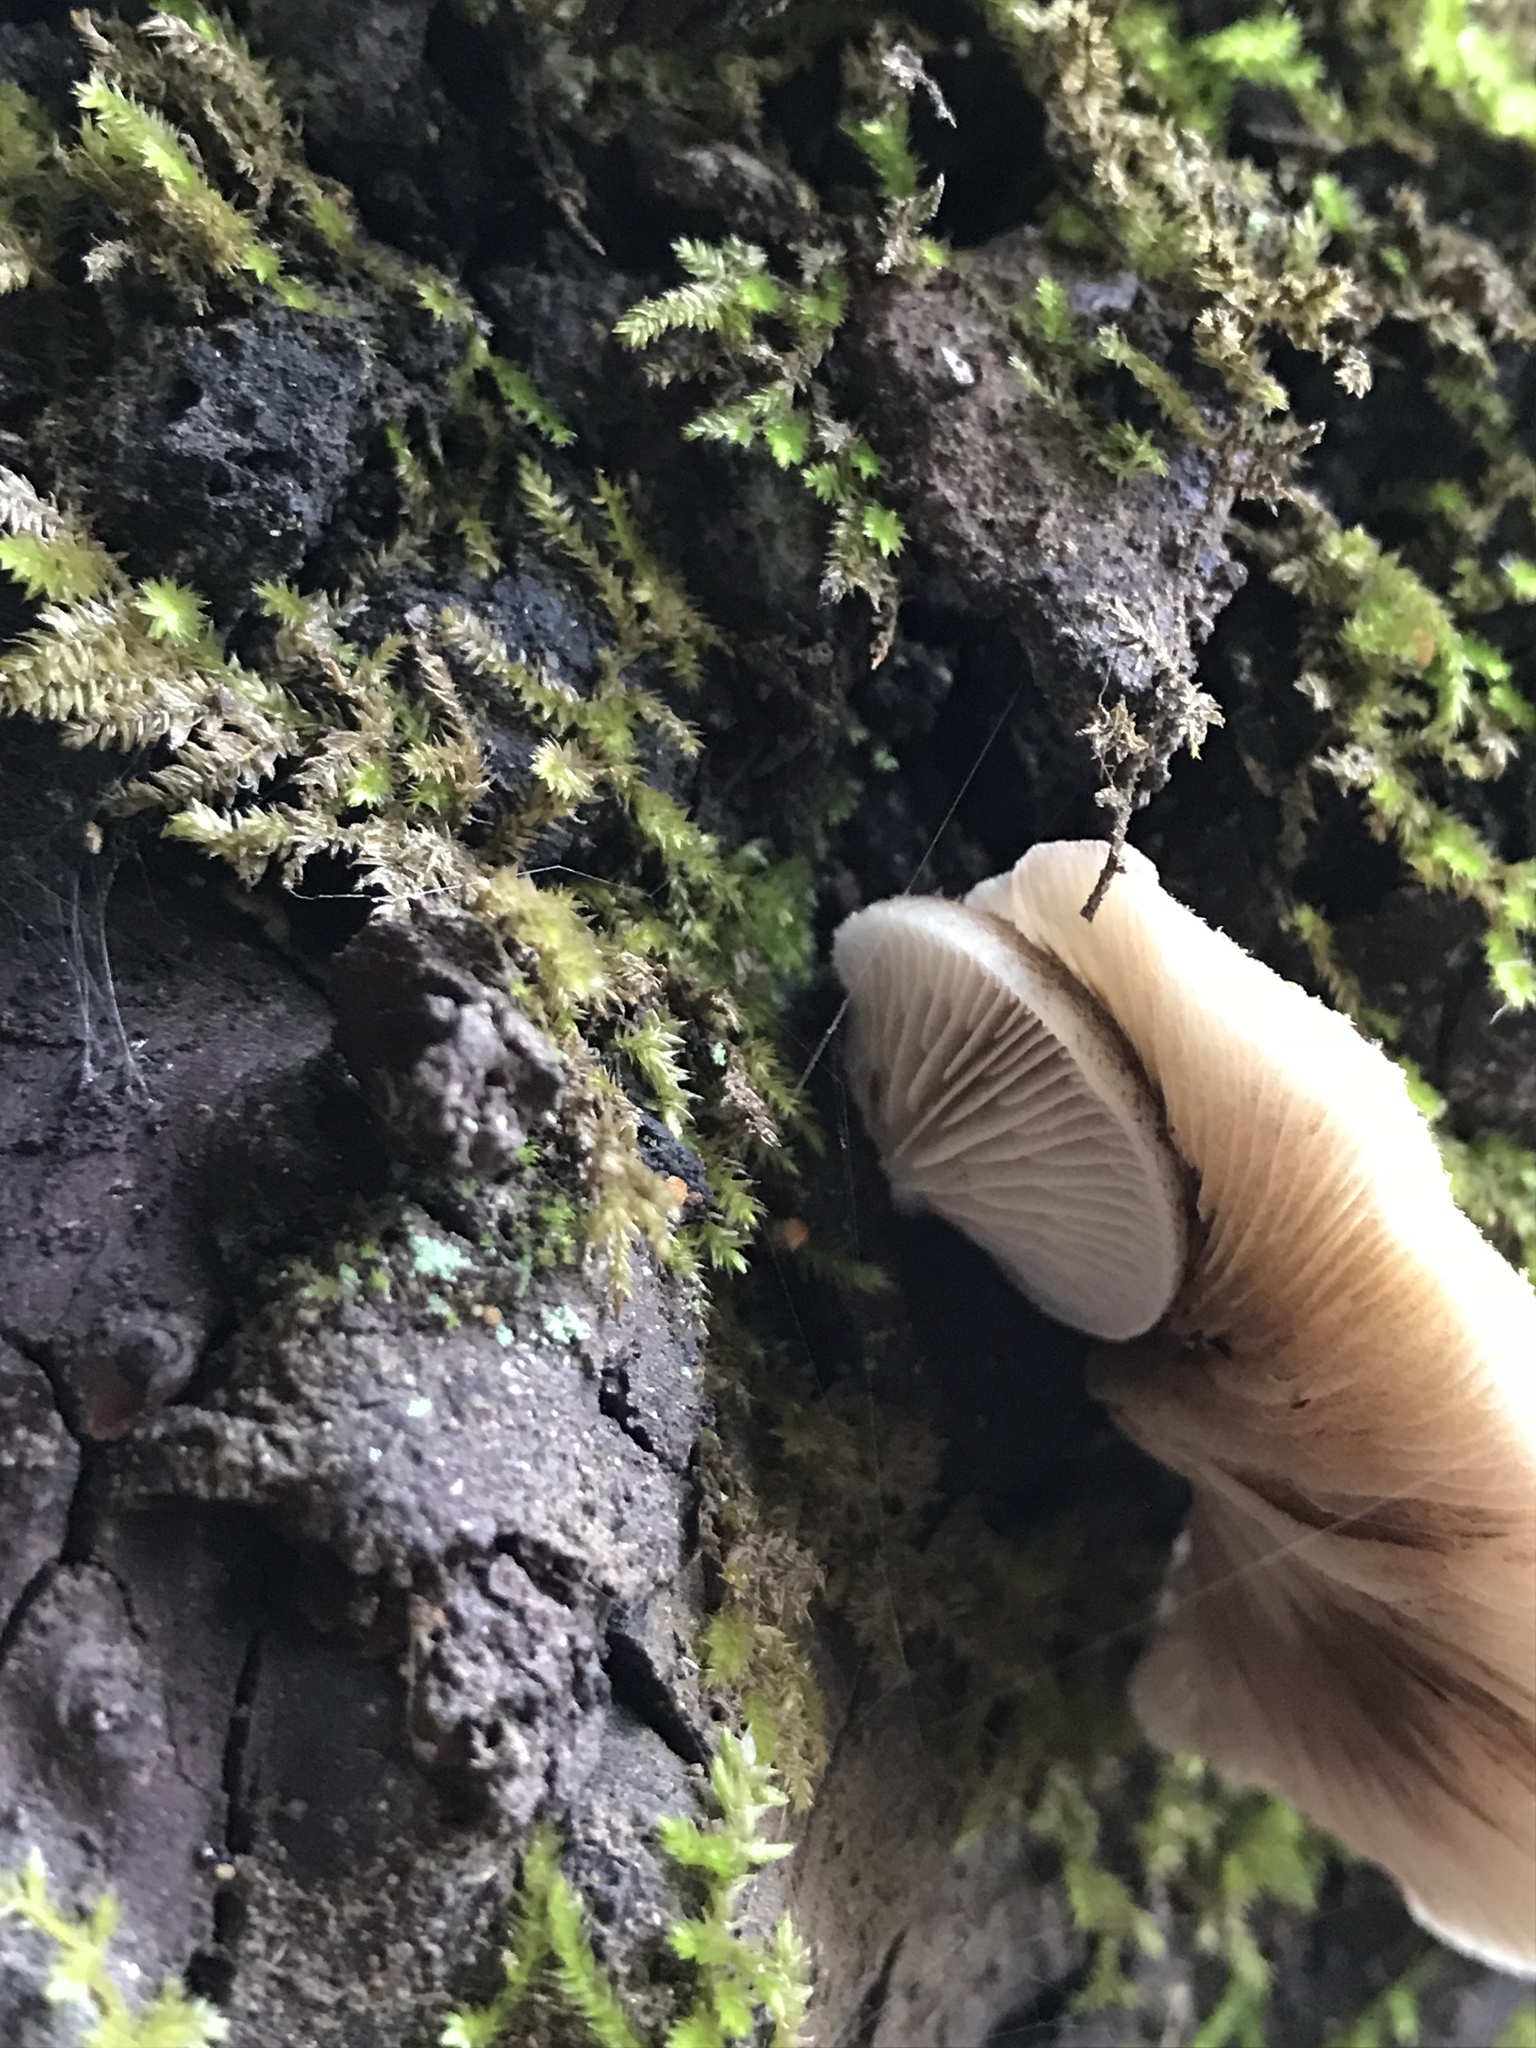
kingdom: Fungi
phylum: Basidiomycota
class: Agaricomycetes
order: Agaricales
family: Crepidotaceae
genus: Crepidotus
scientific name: Crepidotus mollis
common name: Peeling oysterling
